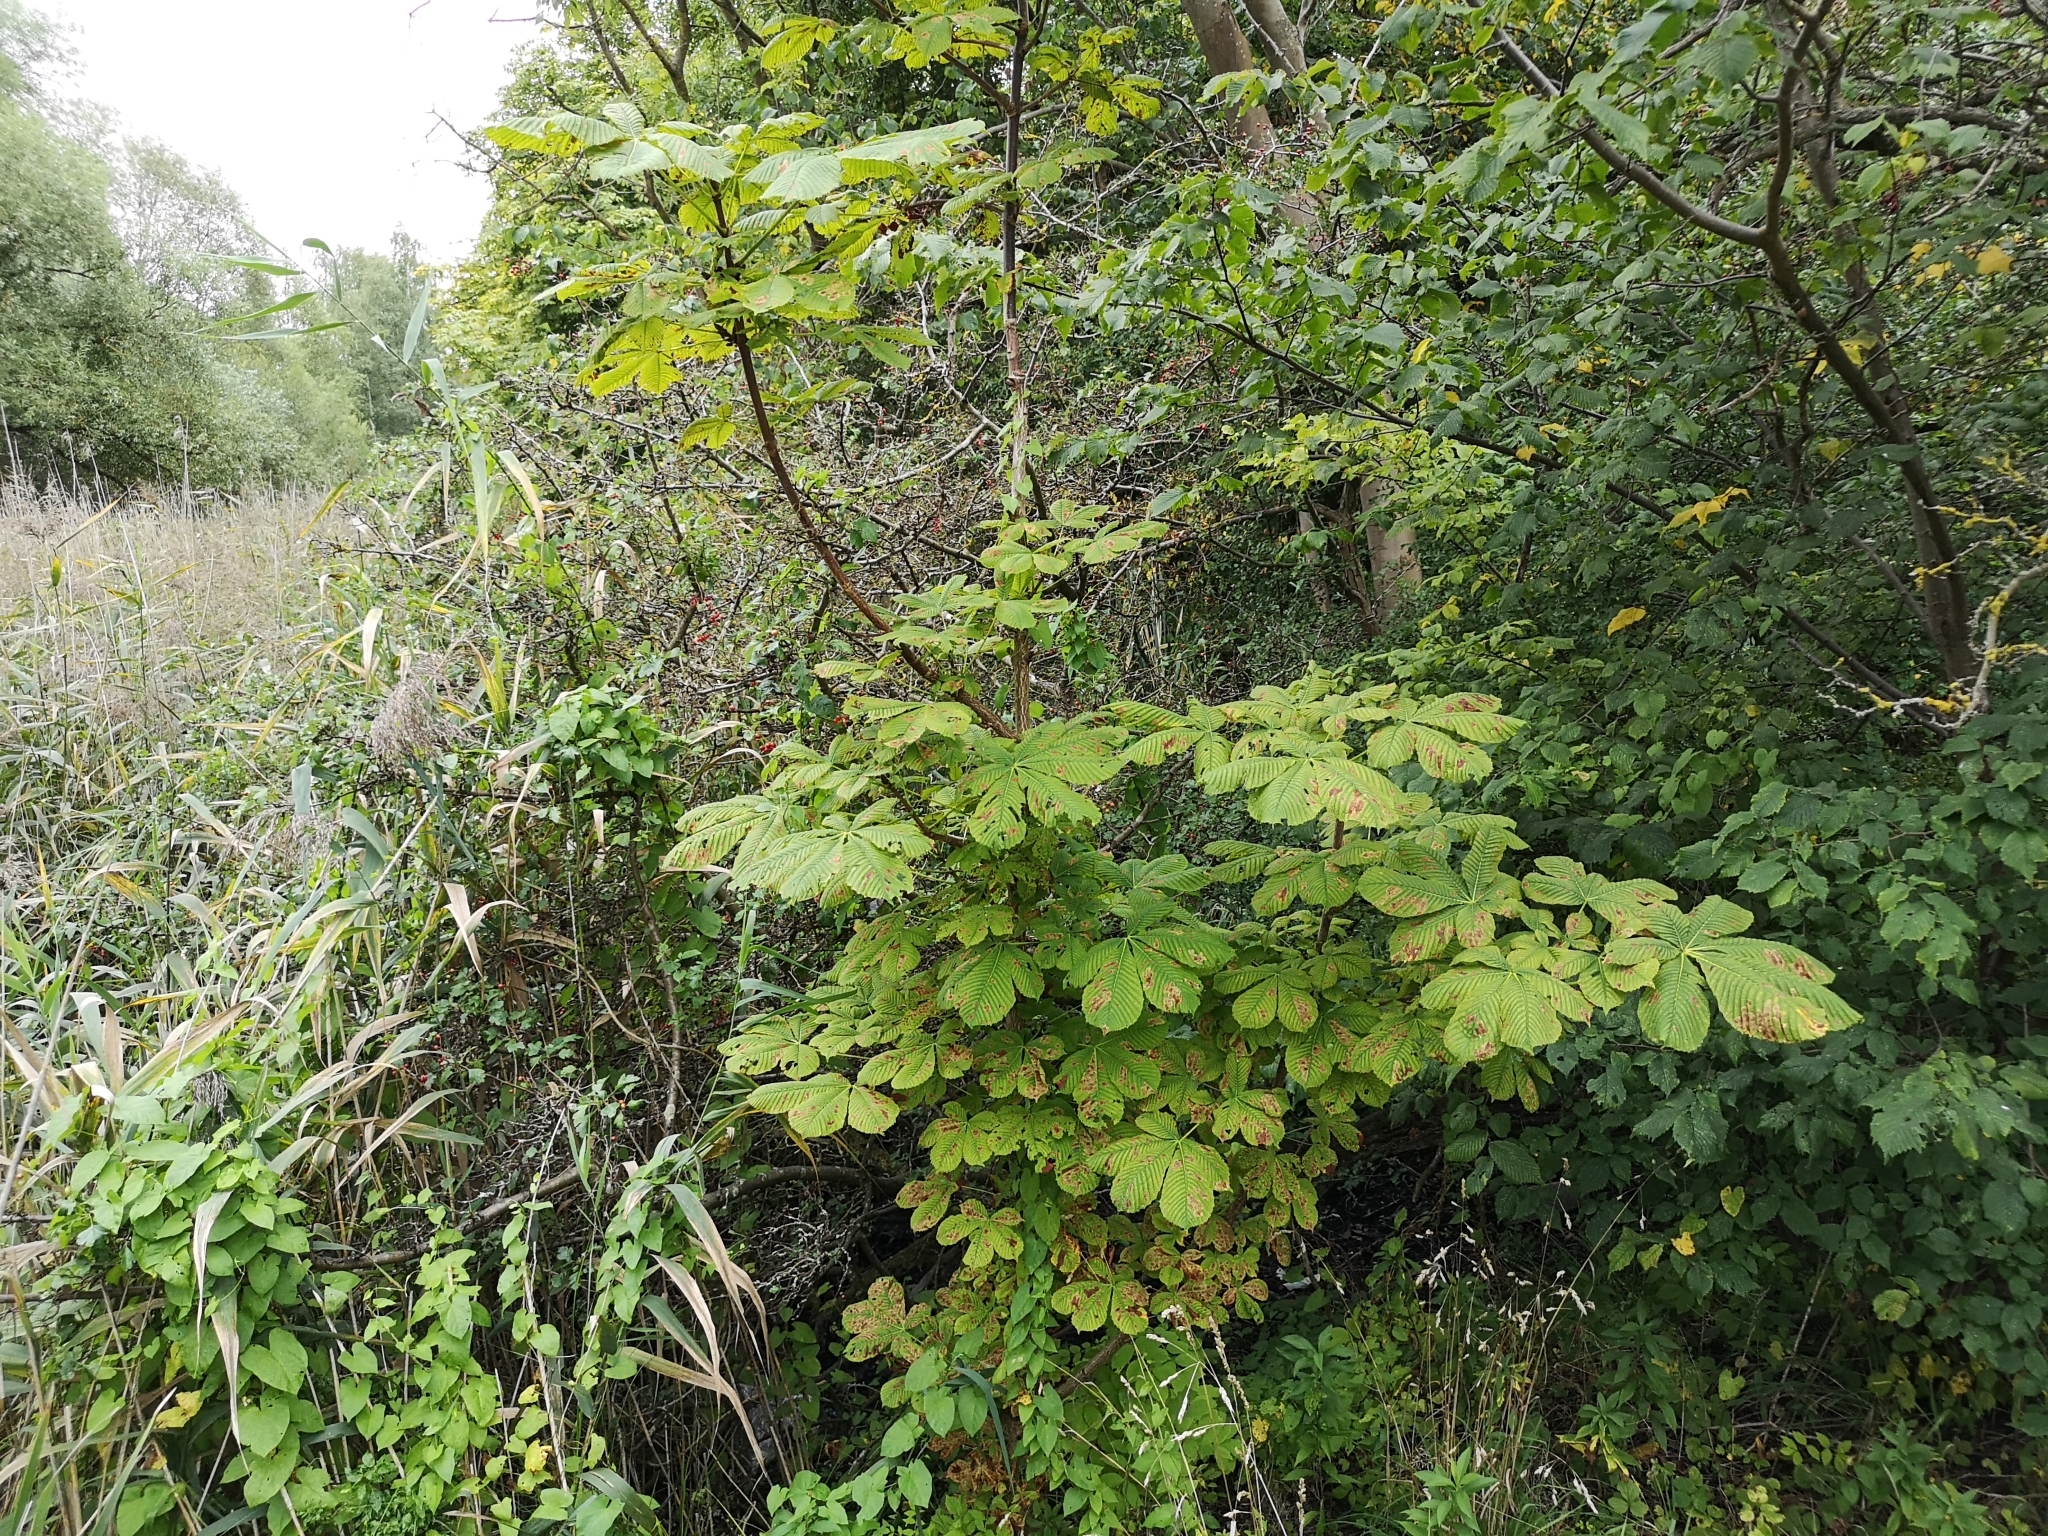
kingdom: Plantae
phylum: Tracheophyta
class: Magnoliopsida
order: Sapindales
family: Sapindaceae
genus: Aesculus
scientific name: Aesculus hippocastanum
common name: Horse-chestnut
